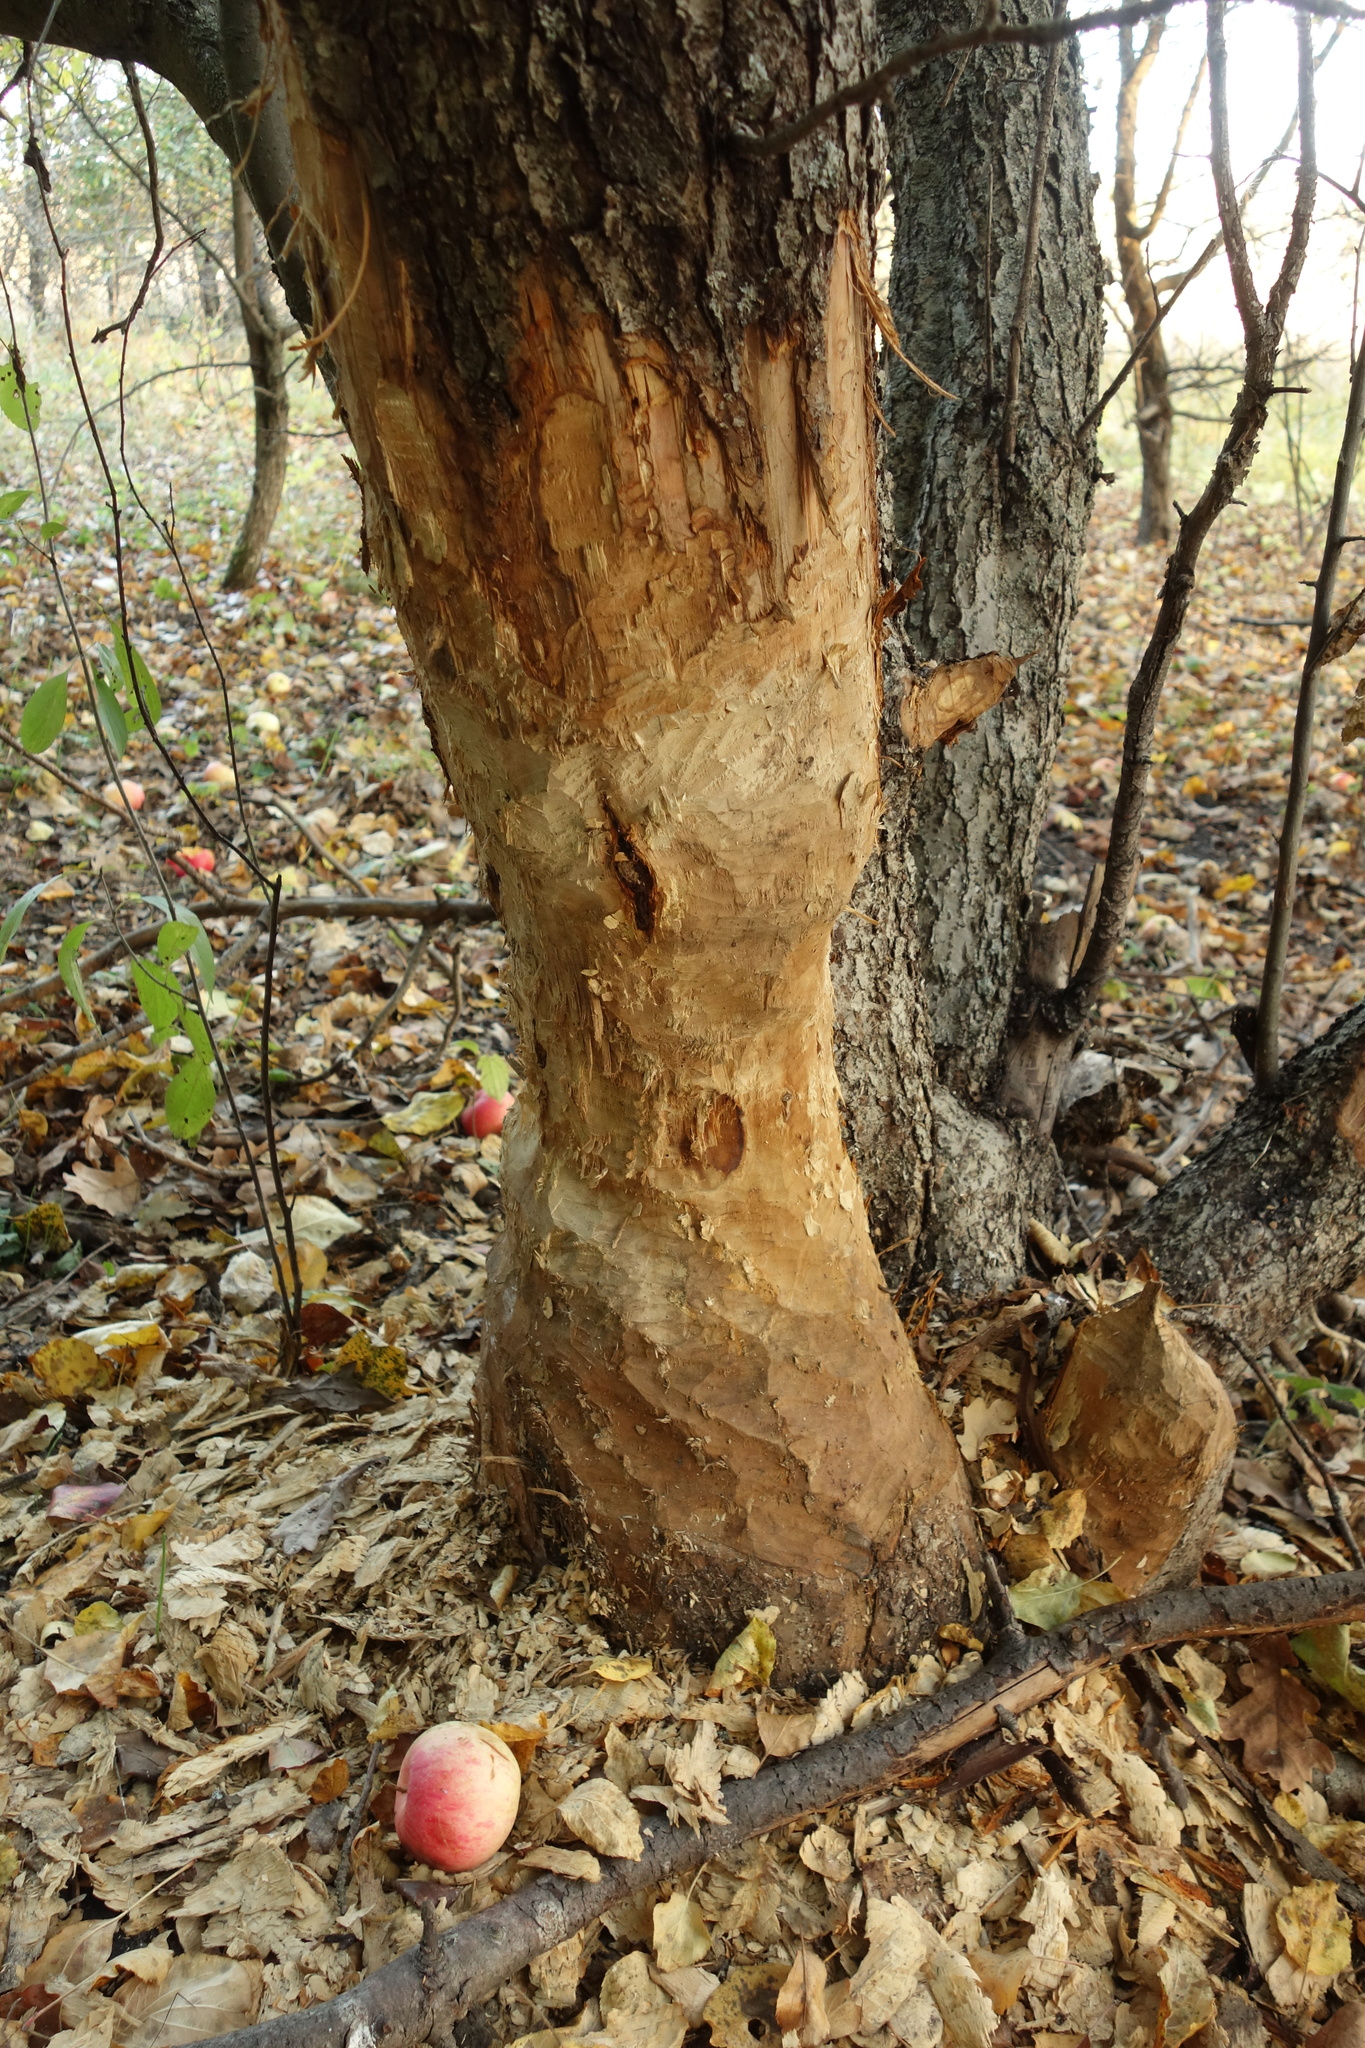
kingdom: Animalia
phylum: Chordata
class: Mammalia
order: Rodentia
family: Castoridae
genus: Castor
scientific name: Castor fiber
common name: Eurasian beaver
